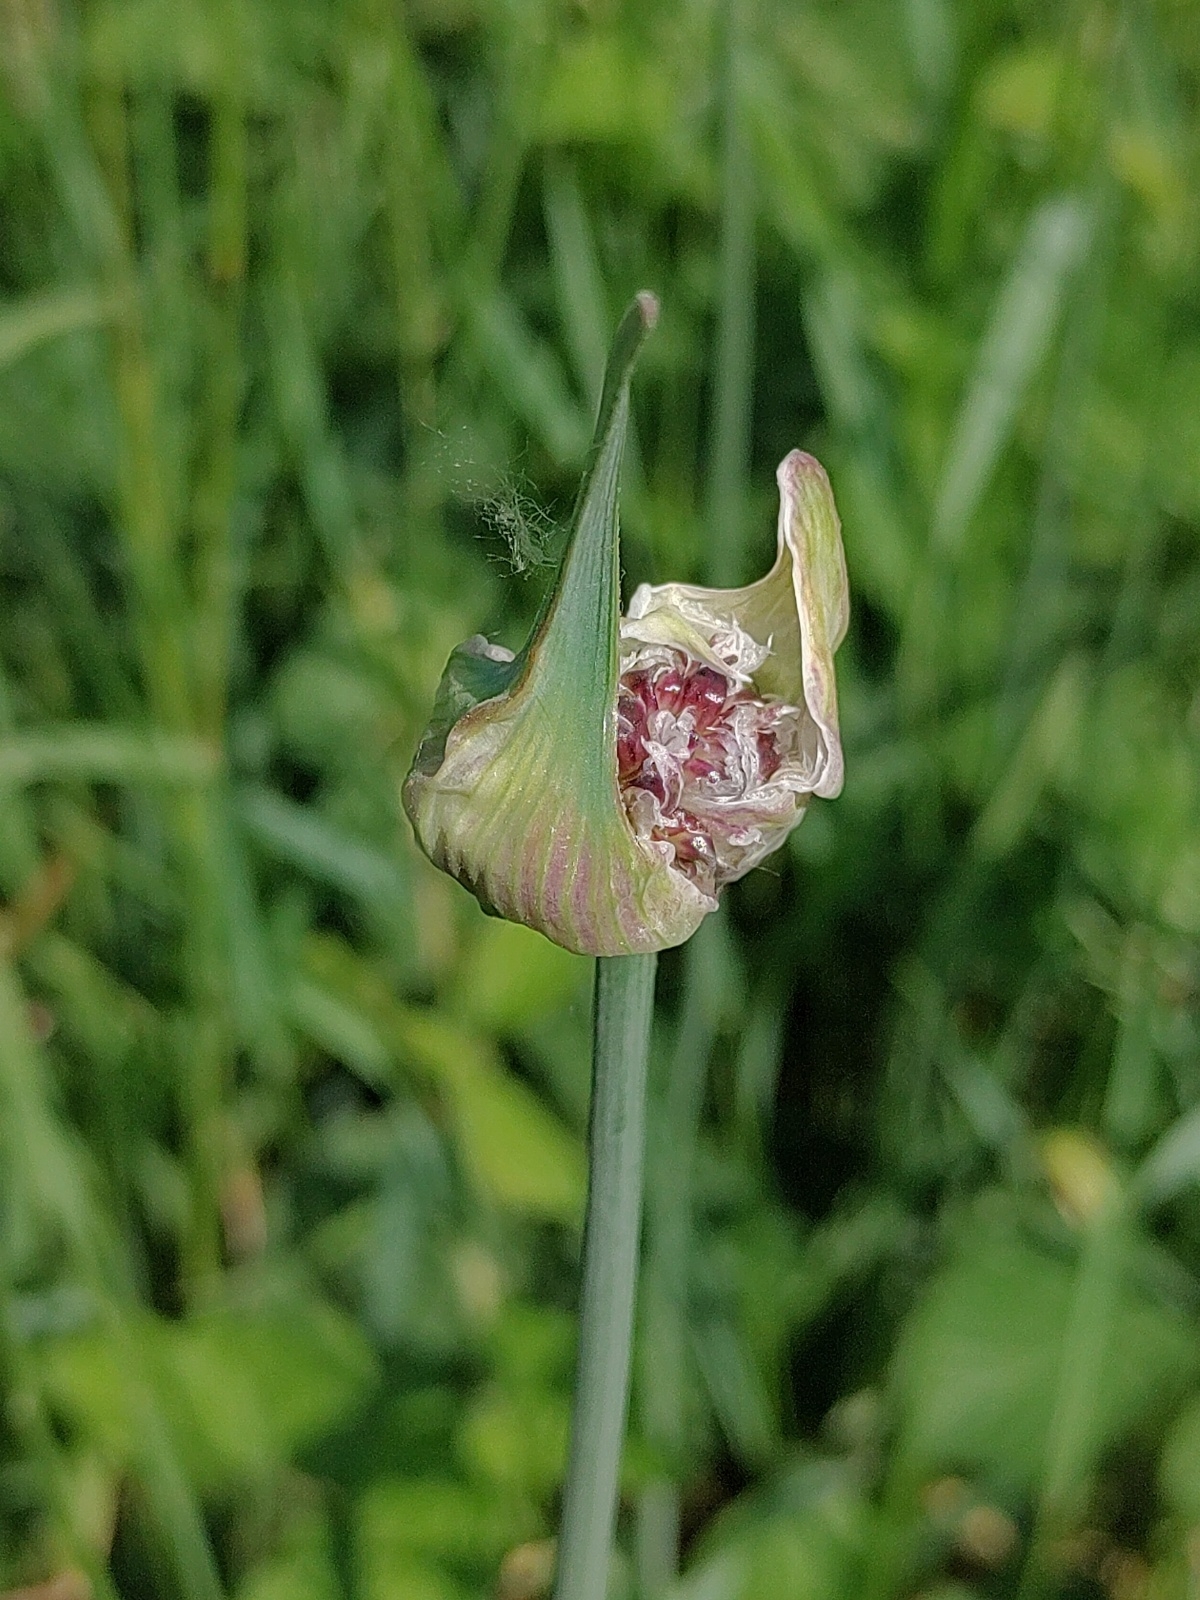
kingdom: Plantae
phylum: Tracheophyta
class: Liliopsida
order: Asparagales
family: Amaryllidaceae
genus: Allium
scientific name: Allium scorodoprasum
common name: Sand leek
